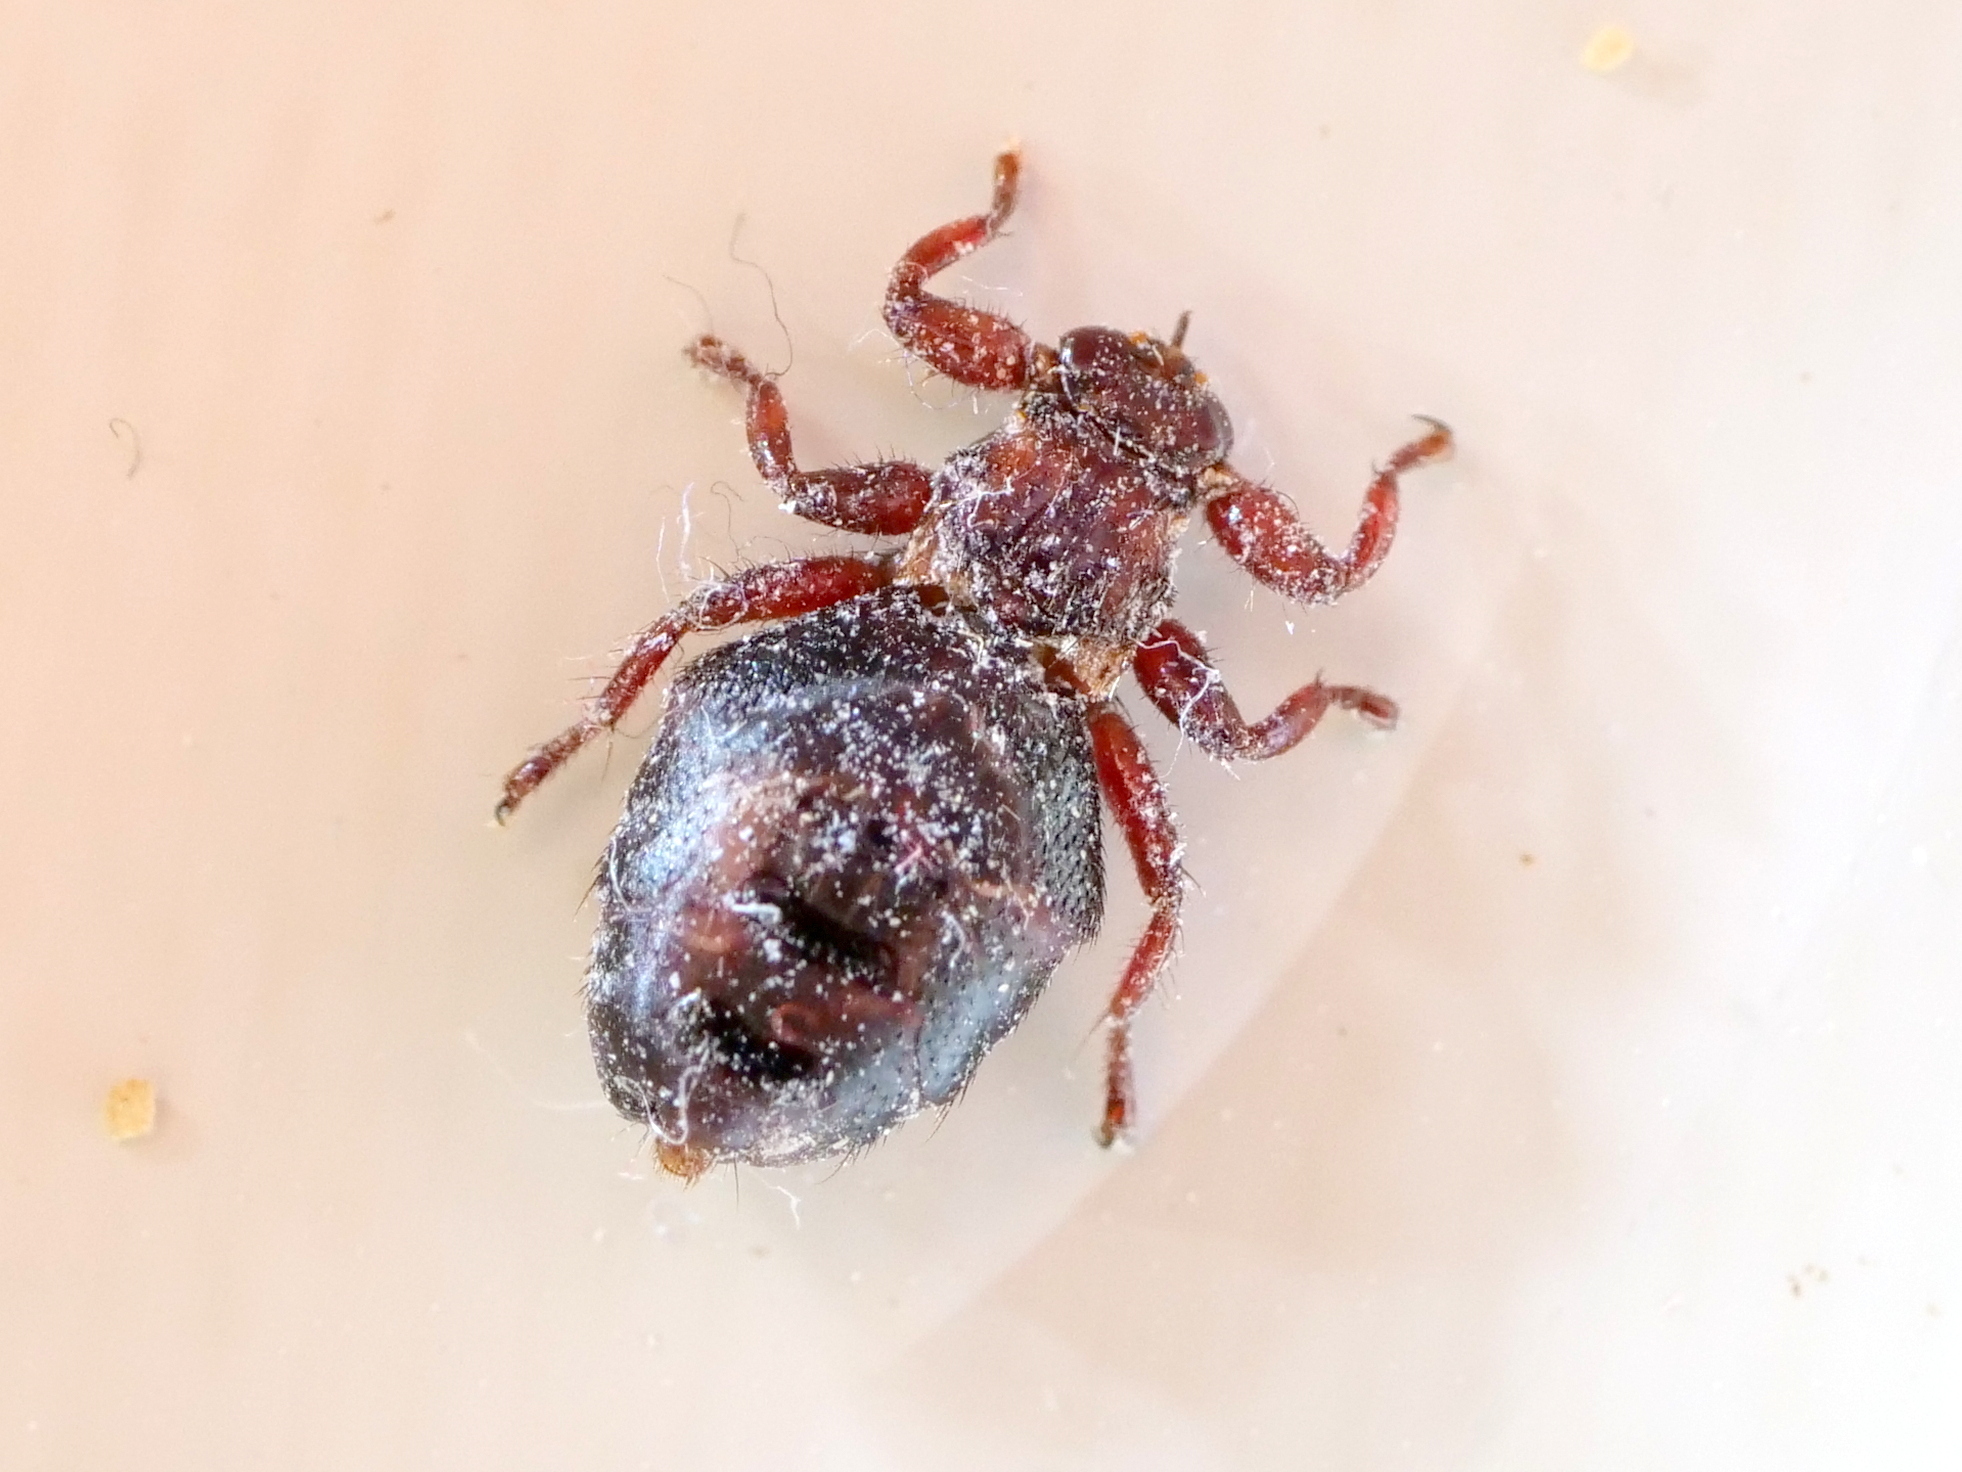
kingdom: Animalia
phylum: Arthropoda
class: Insecta
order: Diptera
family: Hippoboscidae
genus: Lipoptena
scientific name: Lipoptena
